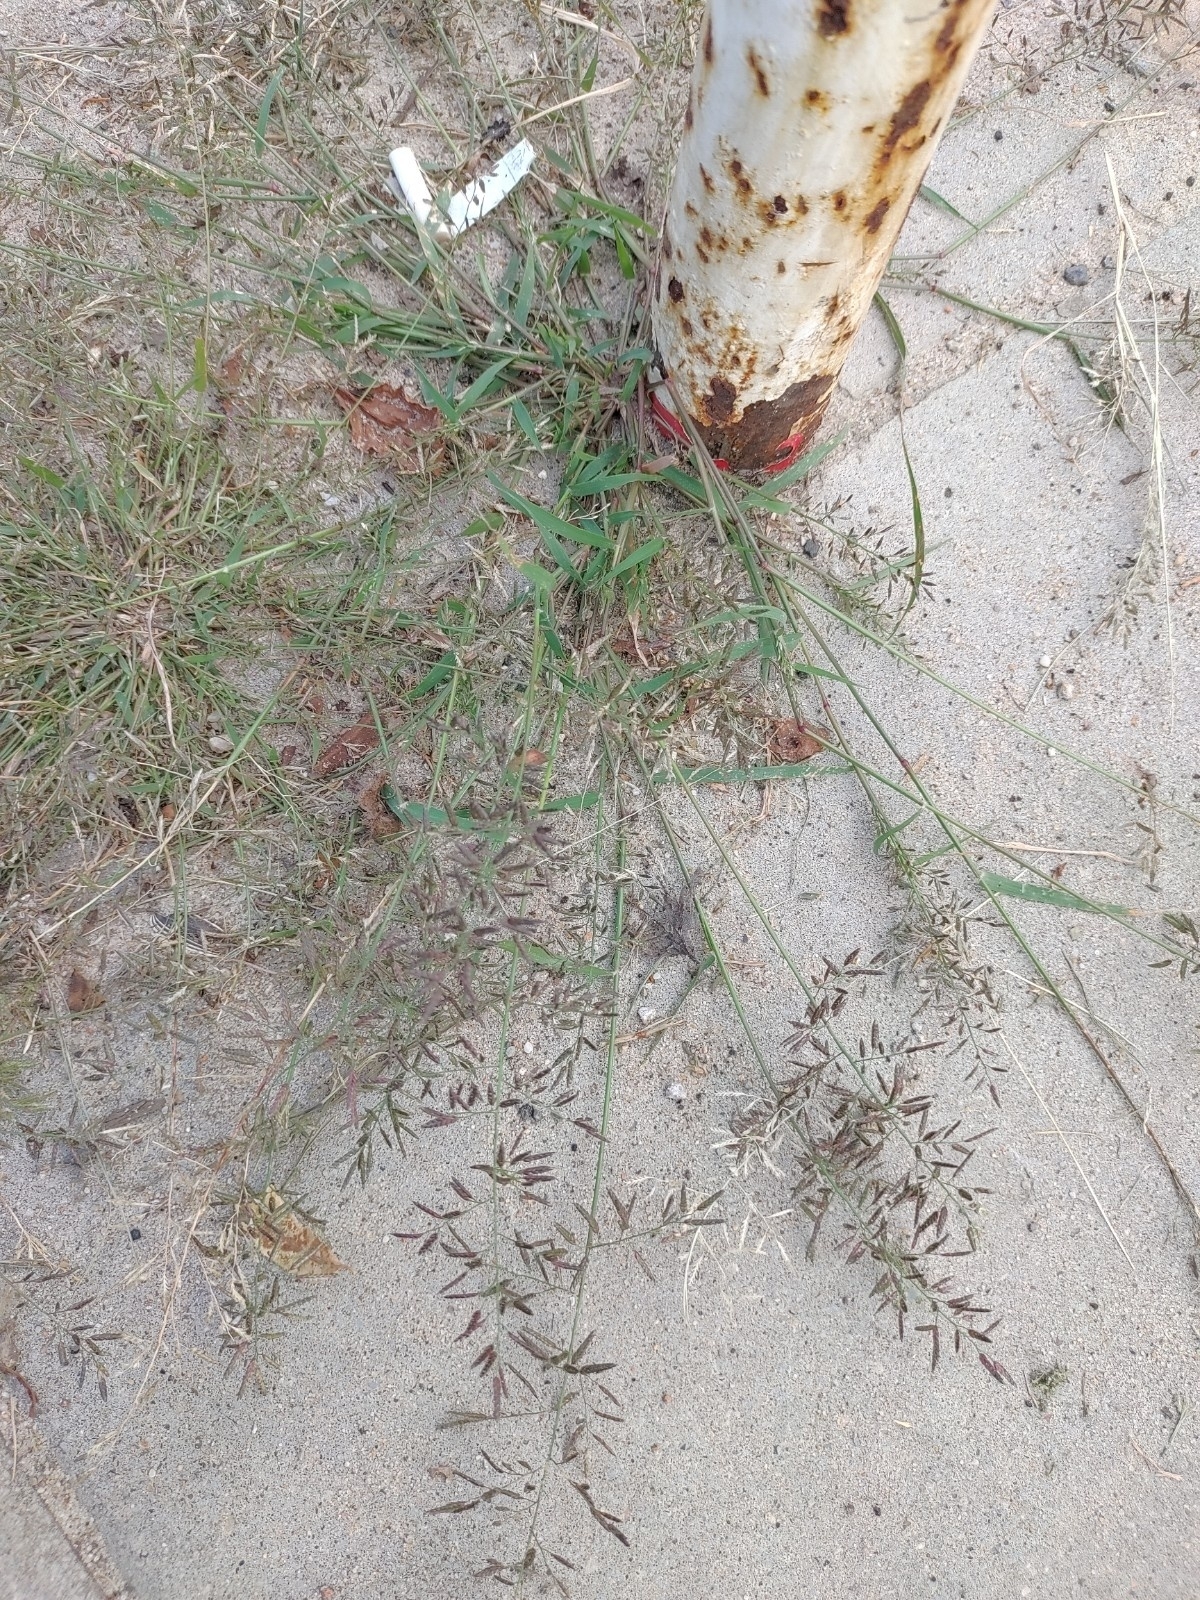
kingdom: Plantae
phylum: Tracheophyta
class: Liliopsida
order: Poales
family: Poaceae
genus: Eragrostis
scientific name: Eragrostis minor
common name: Small love-grass
